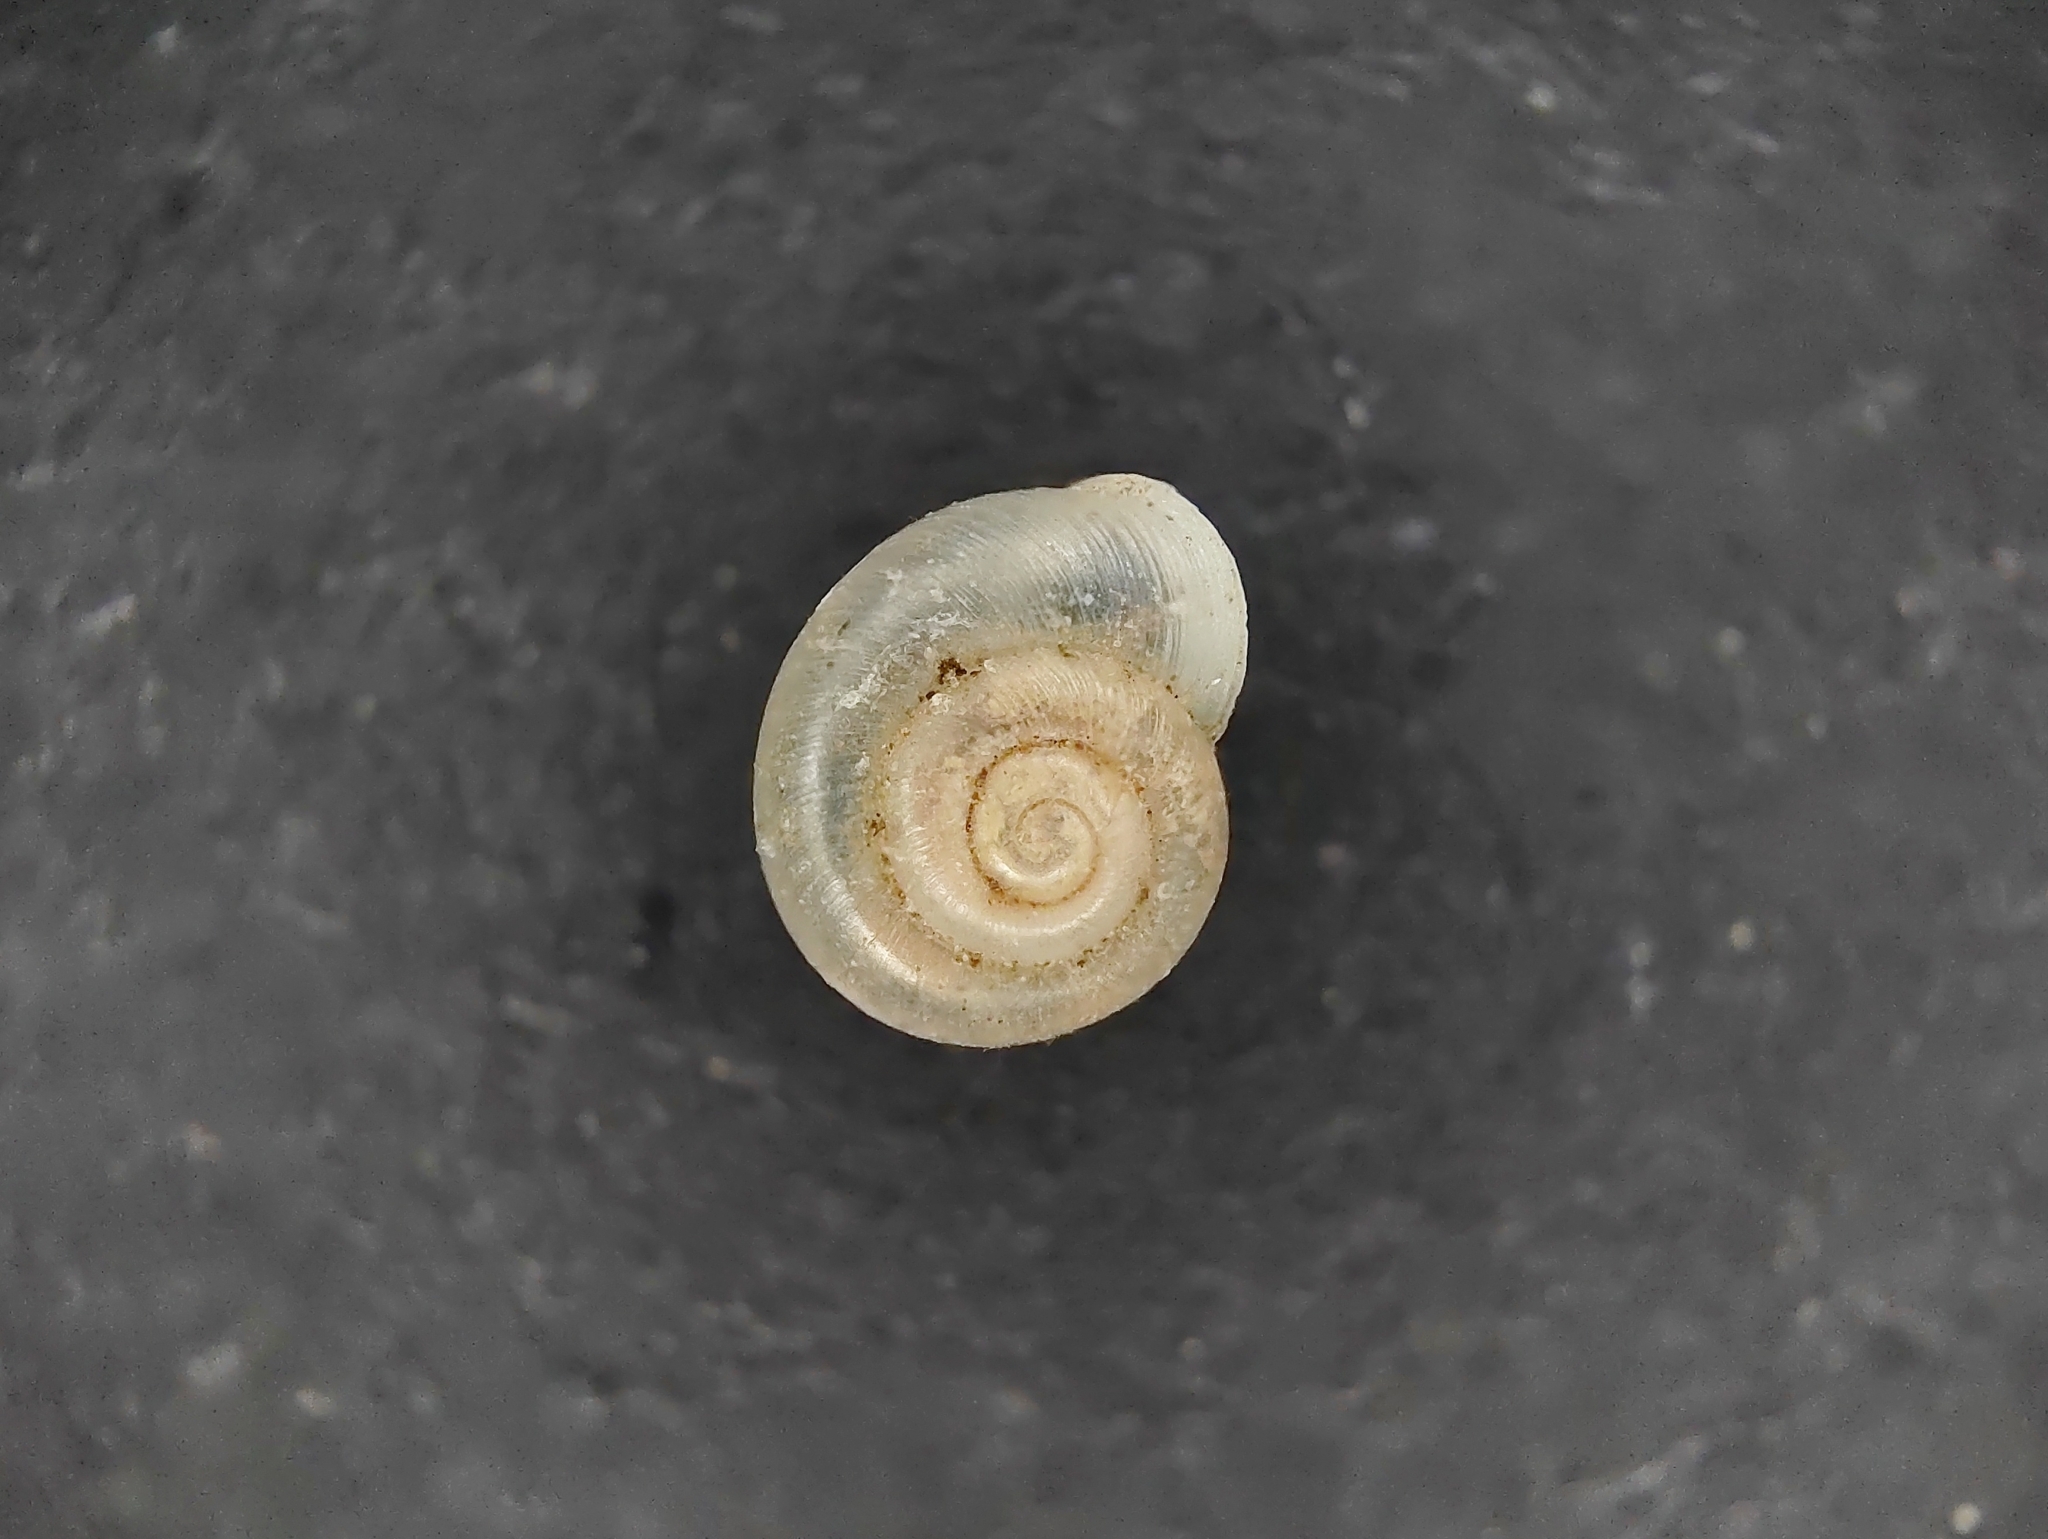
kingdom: Animalia
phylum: Mollusca
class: Gastropoda
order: Stylommatophora
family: Valloniidae
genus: Vallonia
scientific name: Vallonia pulchella
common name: Smooth grass snail
